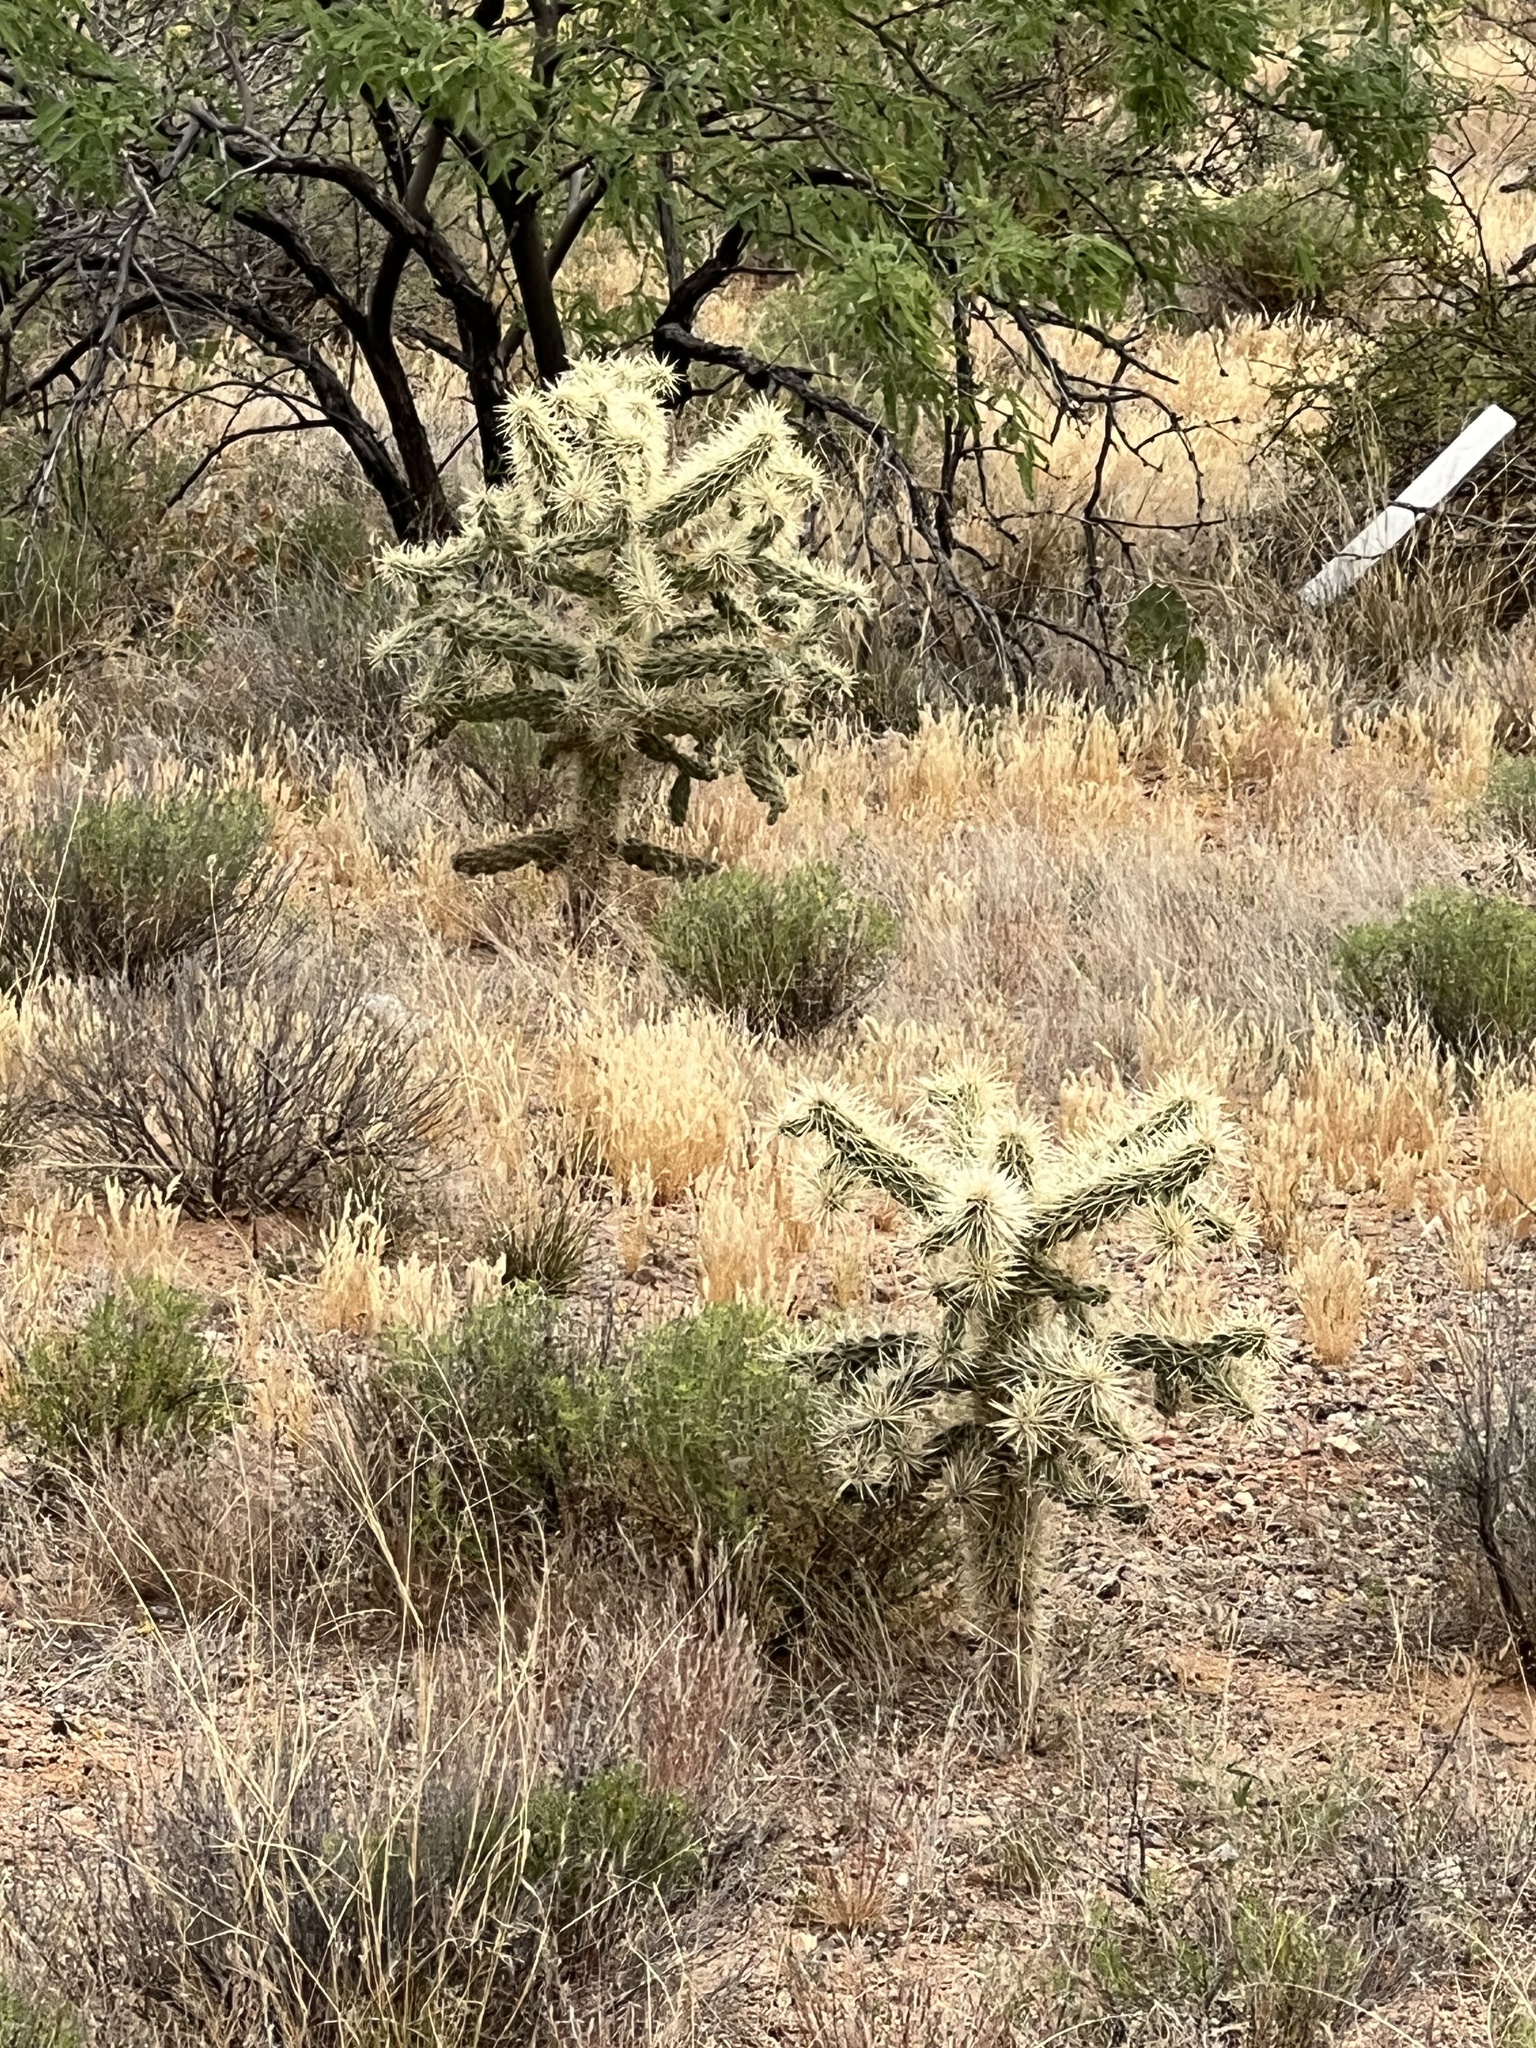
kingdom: Plantae
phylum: Tracheophyta
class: Magnoliopsida
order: Caryophyllales
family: Cactaceae
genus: Cylindropuntia
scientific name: Cylindropuntia fulgida
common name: Jumping cholla
